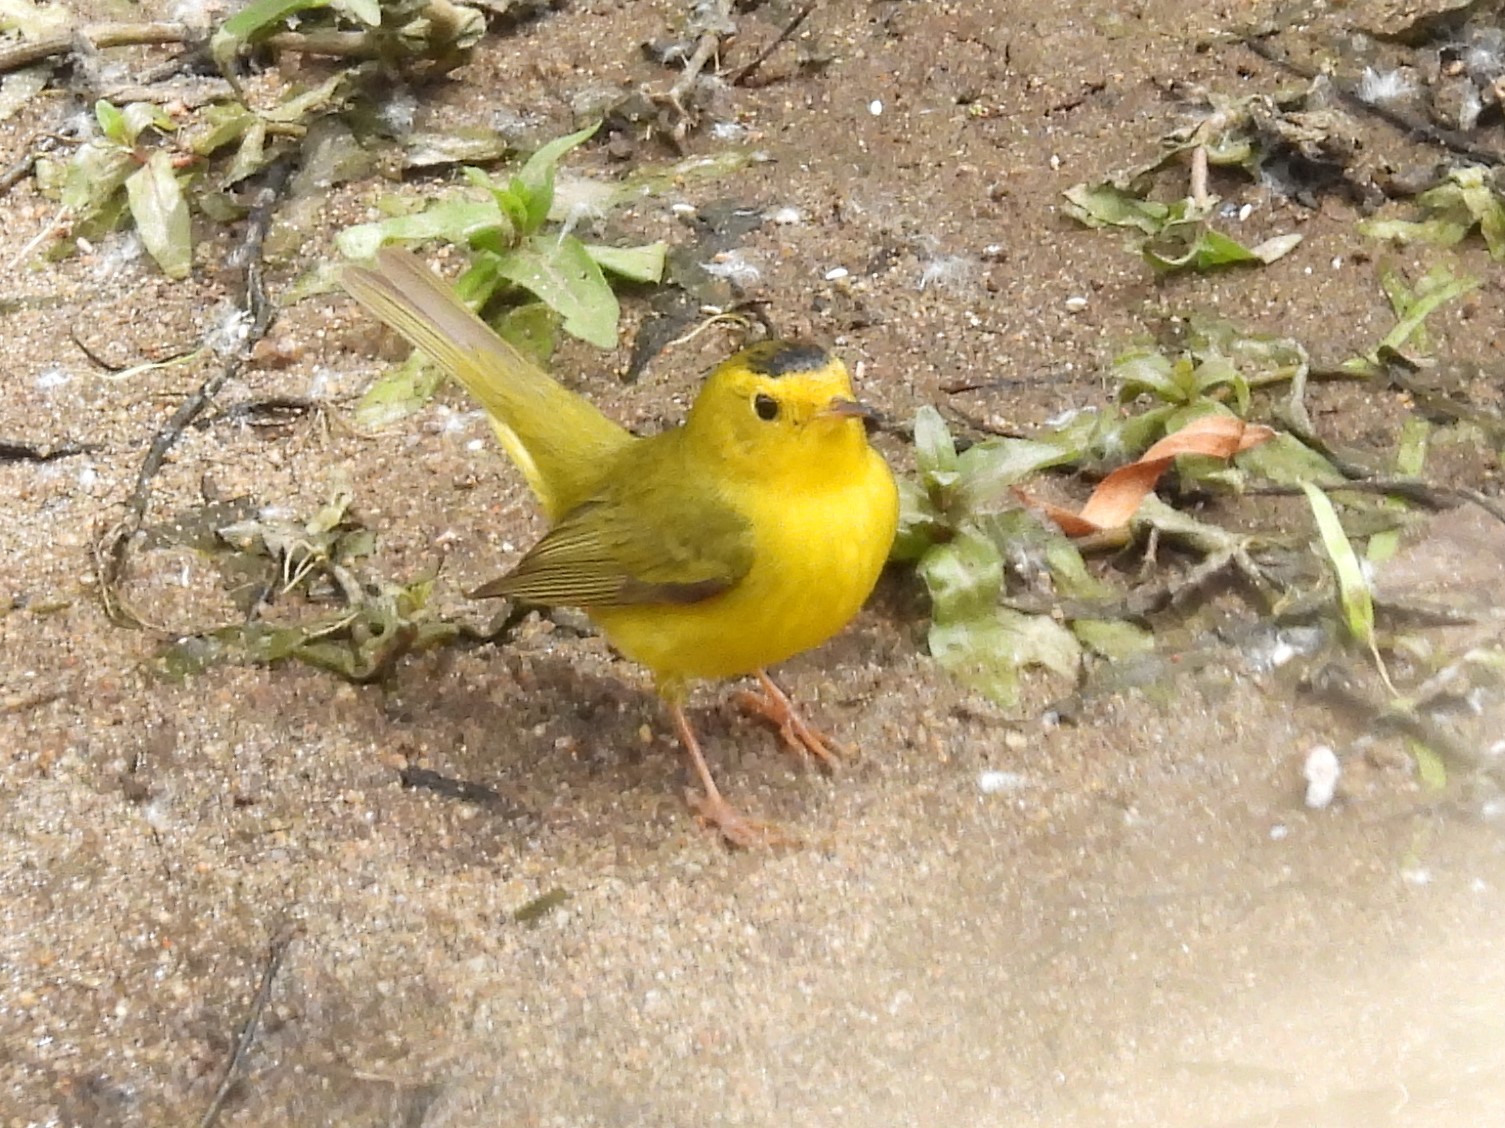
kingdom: Animalia
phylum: Chordata
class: Aves
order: Passeriformes
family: Parulidae
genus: Cardellina
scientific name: Cardellina pusilla
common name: Wilson's warbler
